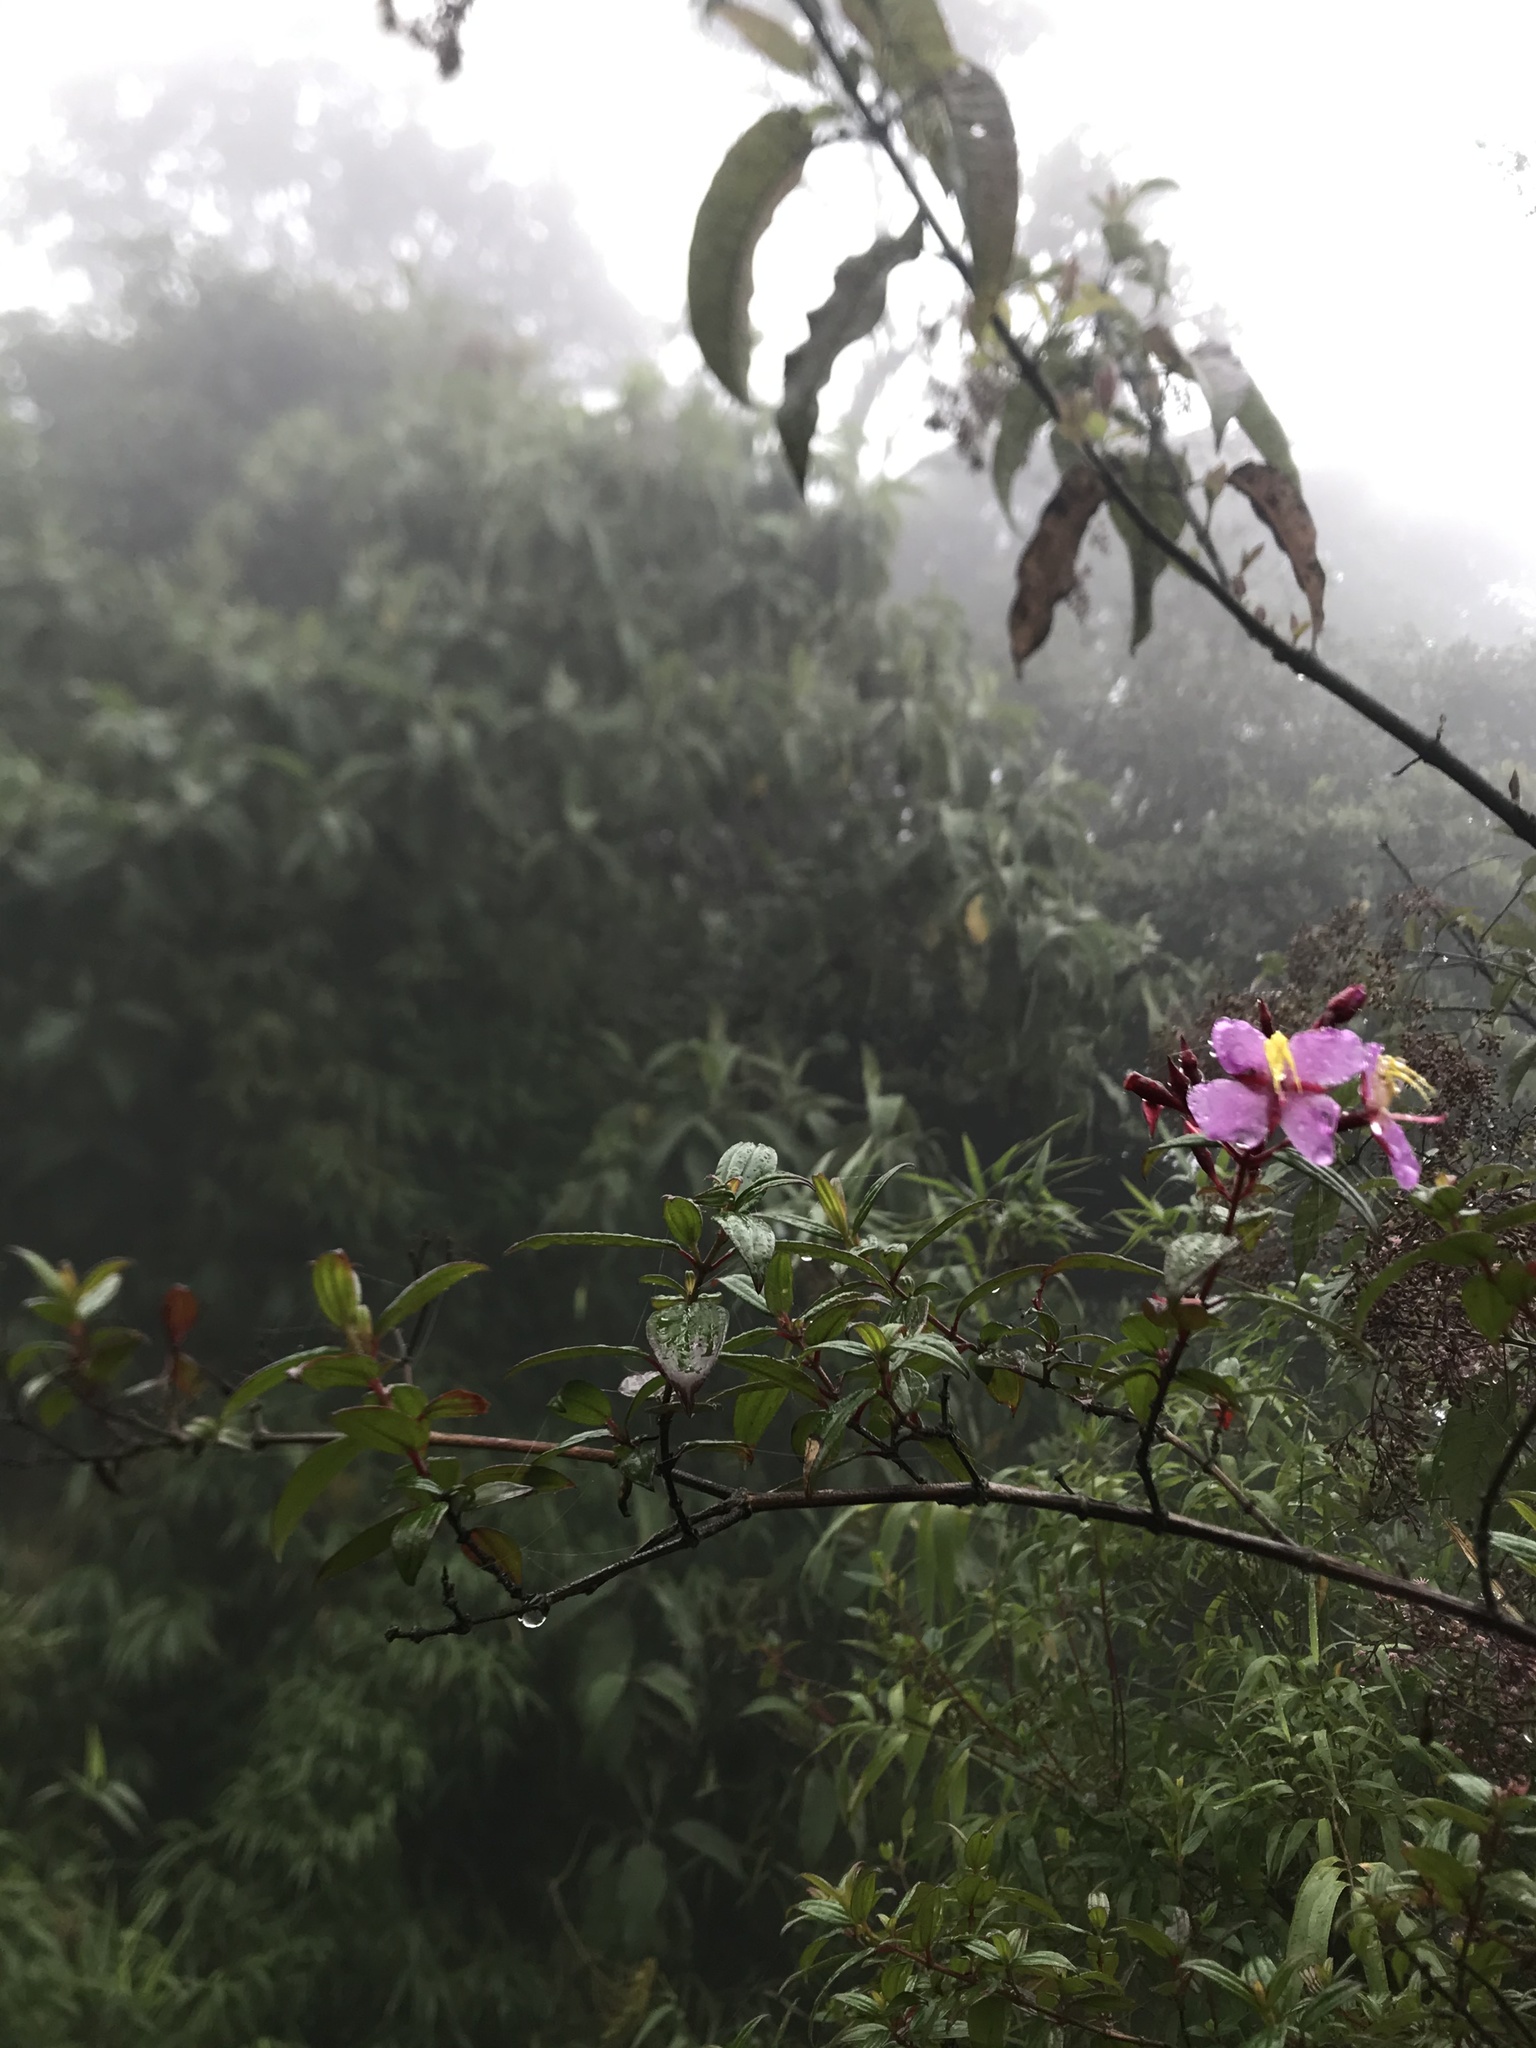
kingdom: Plantae
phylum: Tracheophyta
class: Magnoliopsida
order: Myrtales
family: Melastomataceae
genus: Monochaetum
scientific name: Monochaetum myrtoideum
